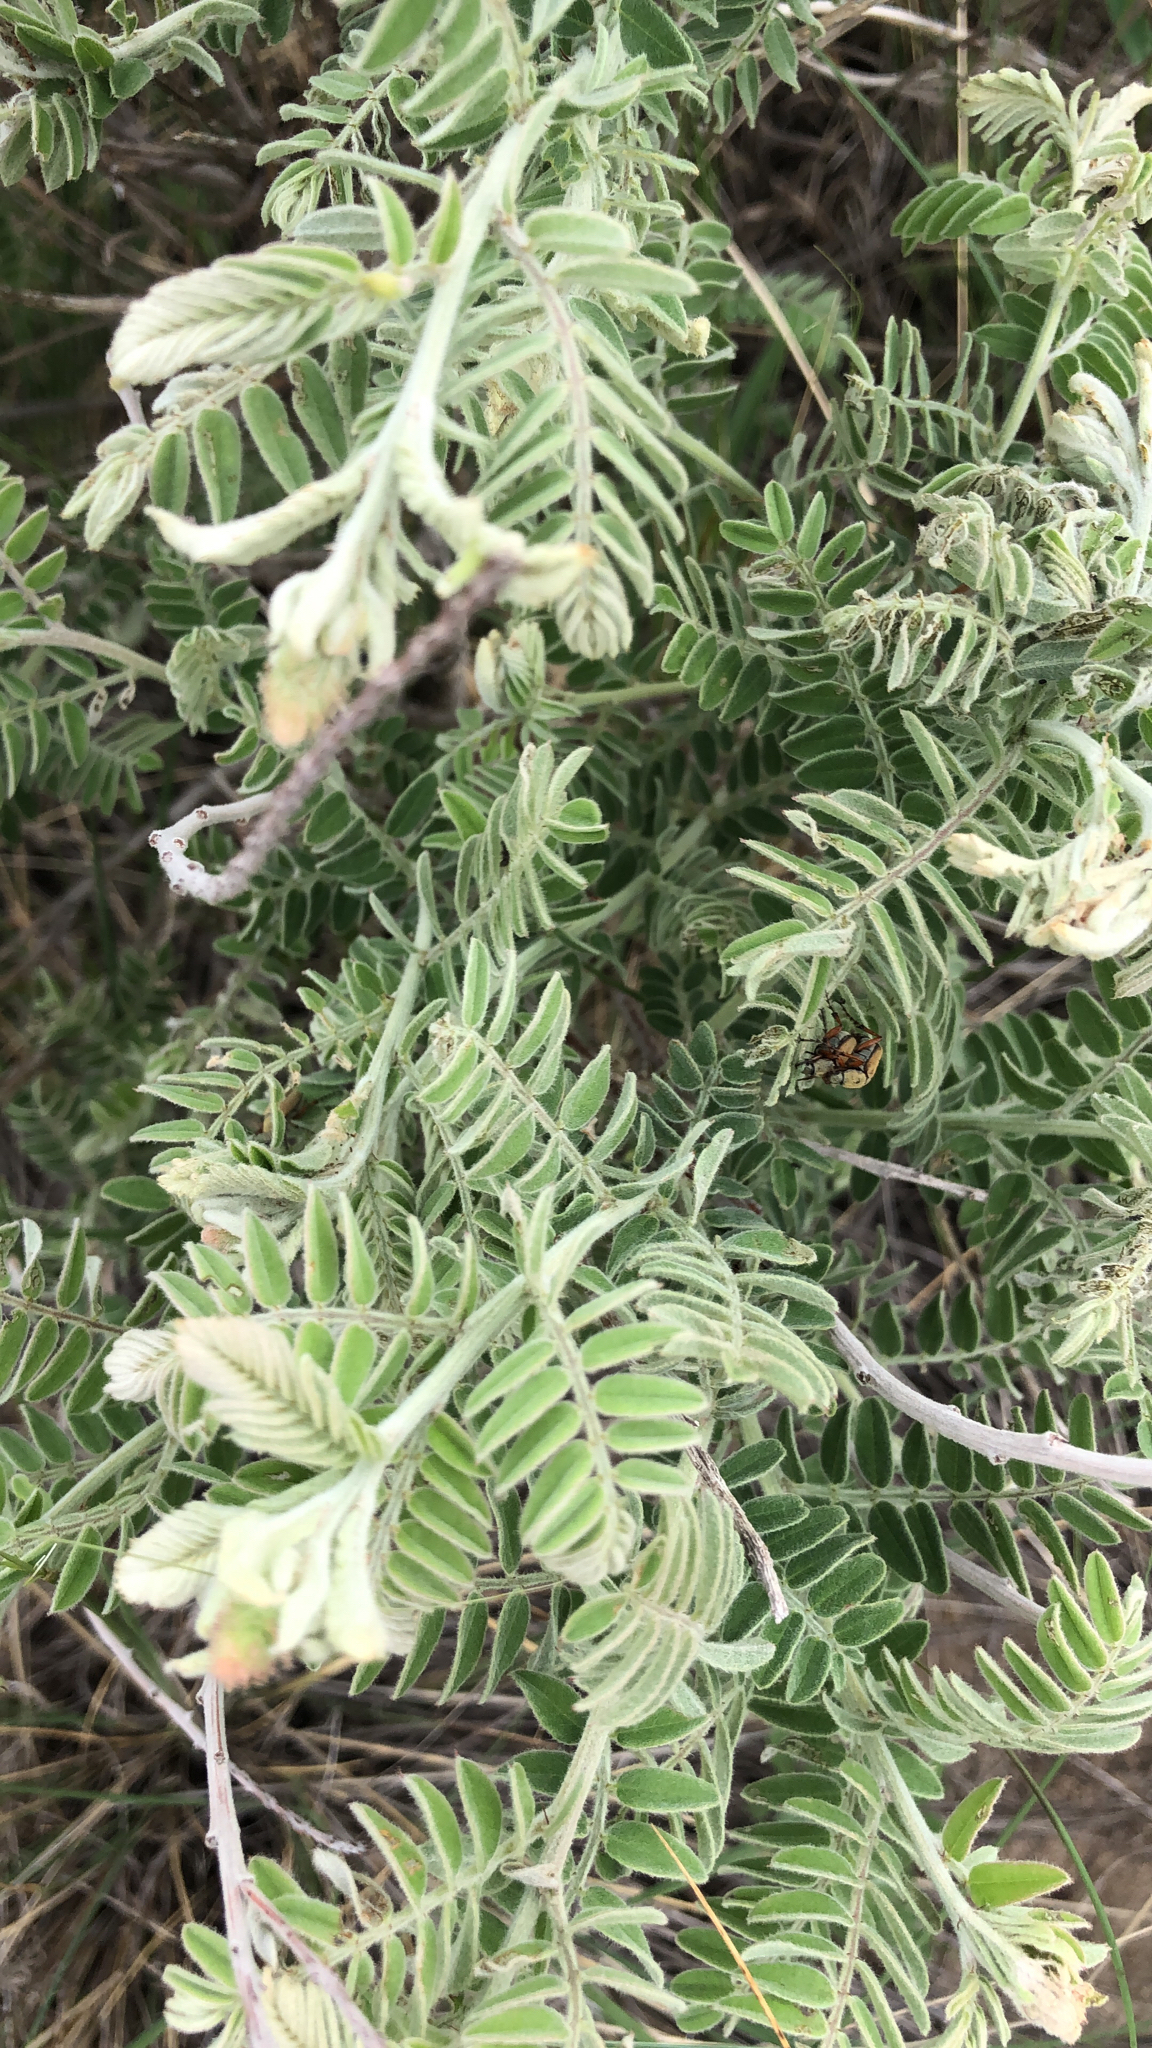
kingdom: Plantae
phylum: Tracheophyta
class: Magnoliopsida
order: Fabales
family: Fabaceae
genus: Amorpha
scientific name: Amorpha canescens
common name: Leadplant
